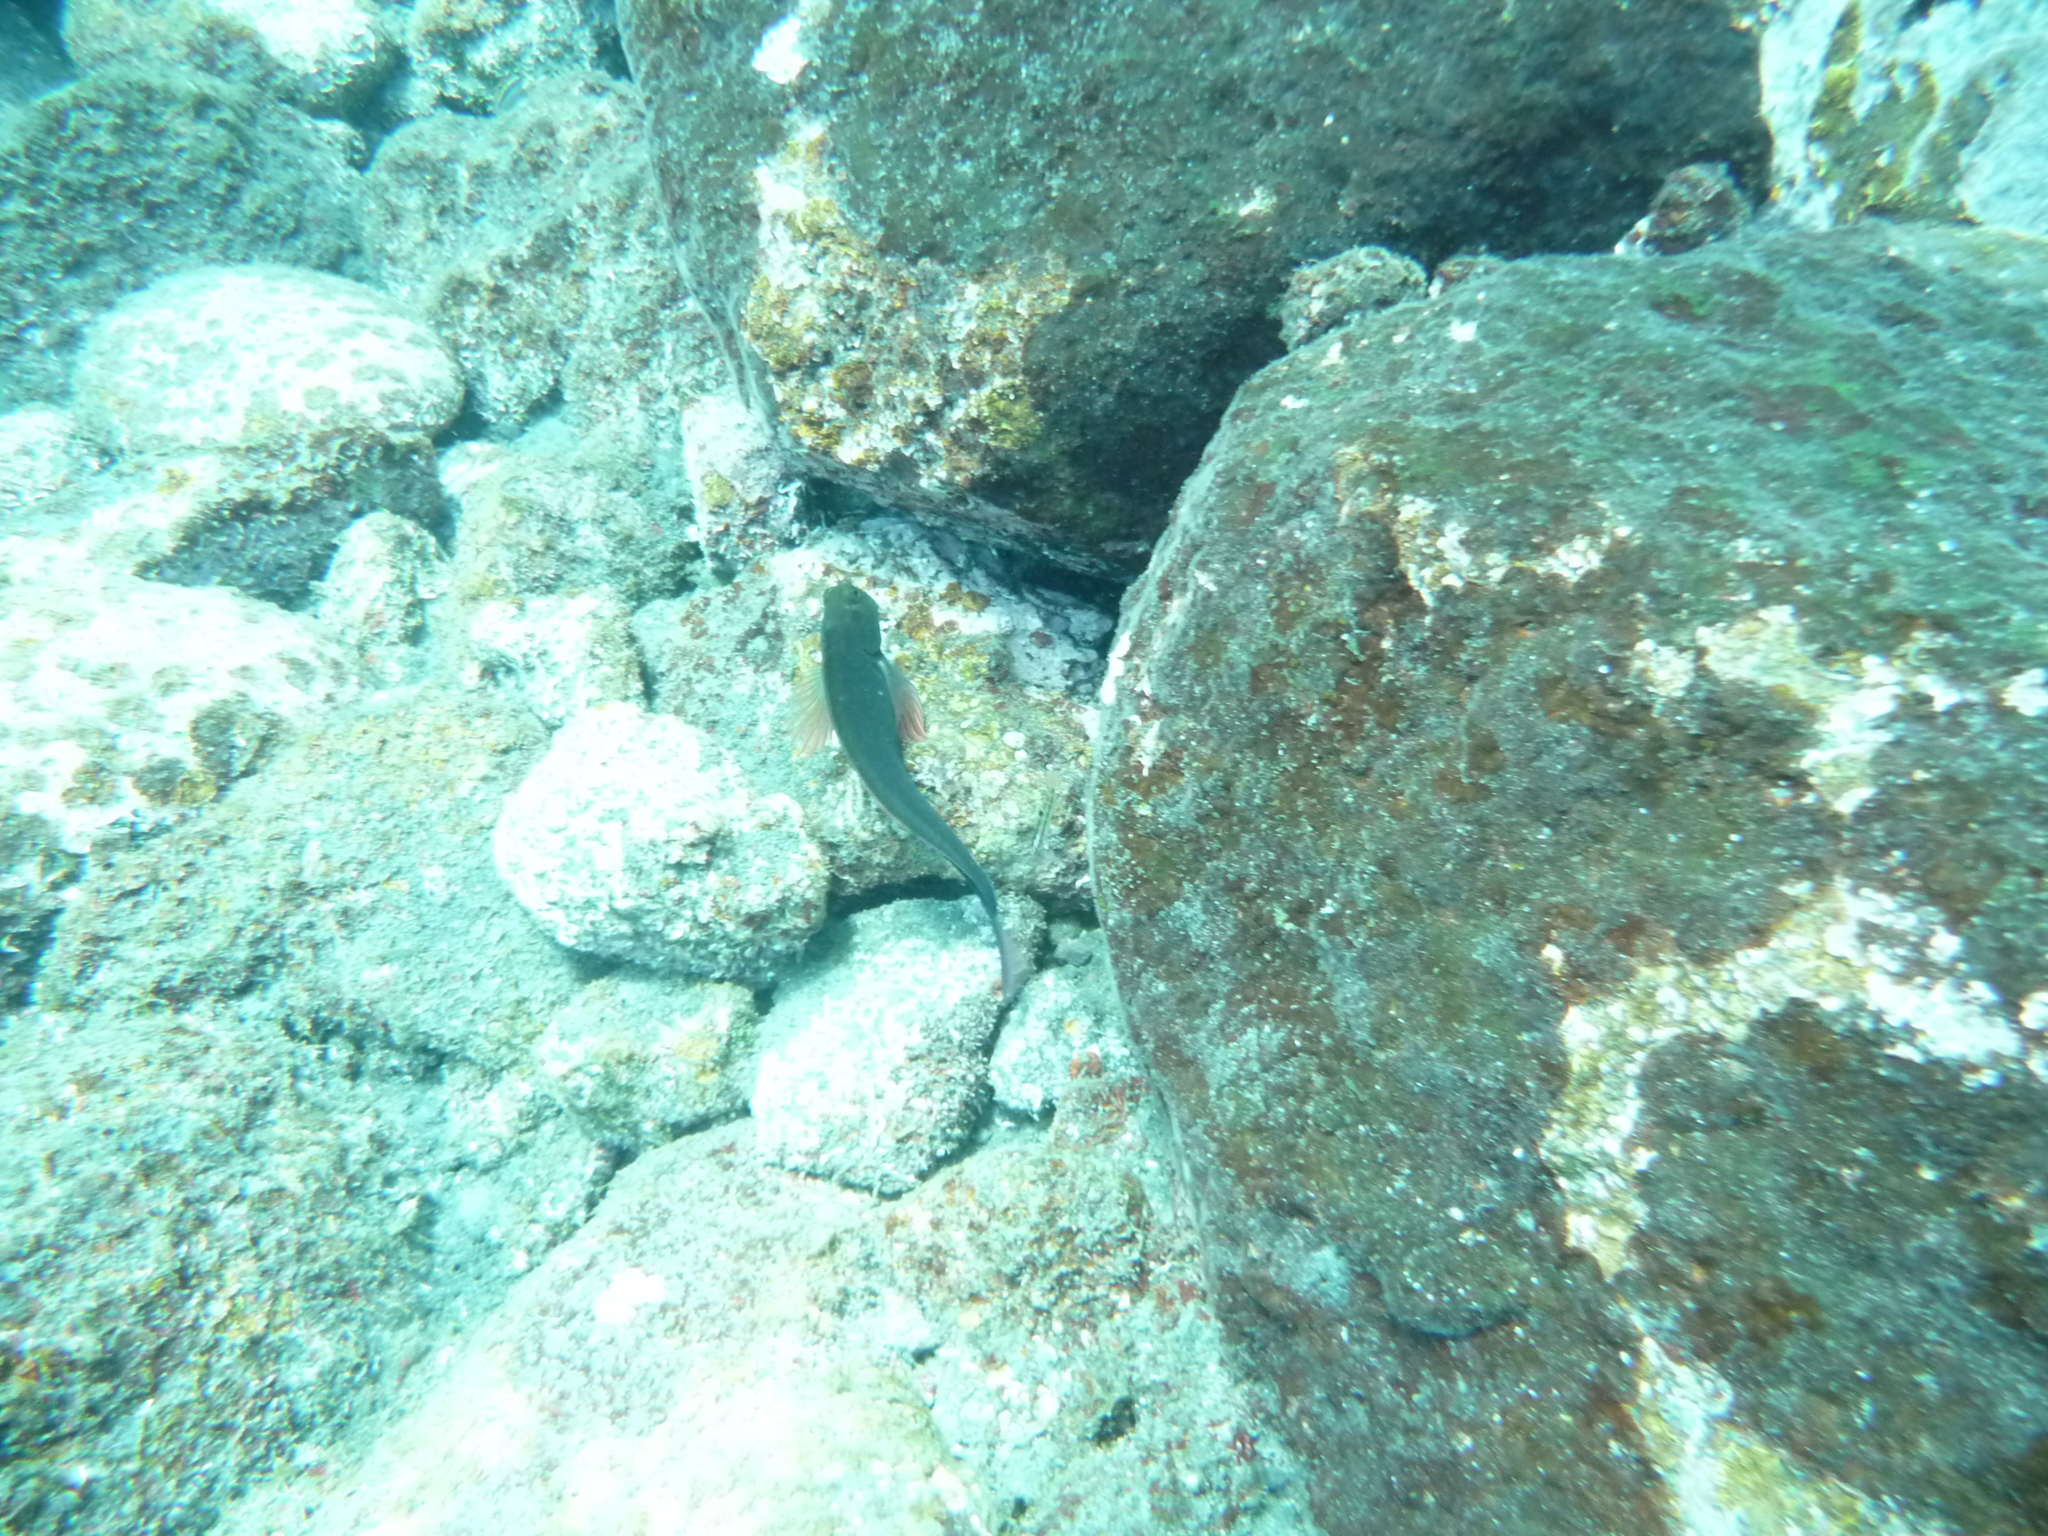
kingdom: Animalia
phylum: Chordata
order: Perciformes
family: Blenniidae
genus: Ophioblennius
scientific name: Ophioblennius atlanticus
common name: Redlip blenny
